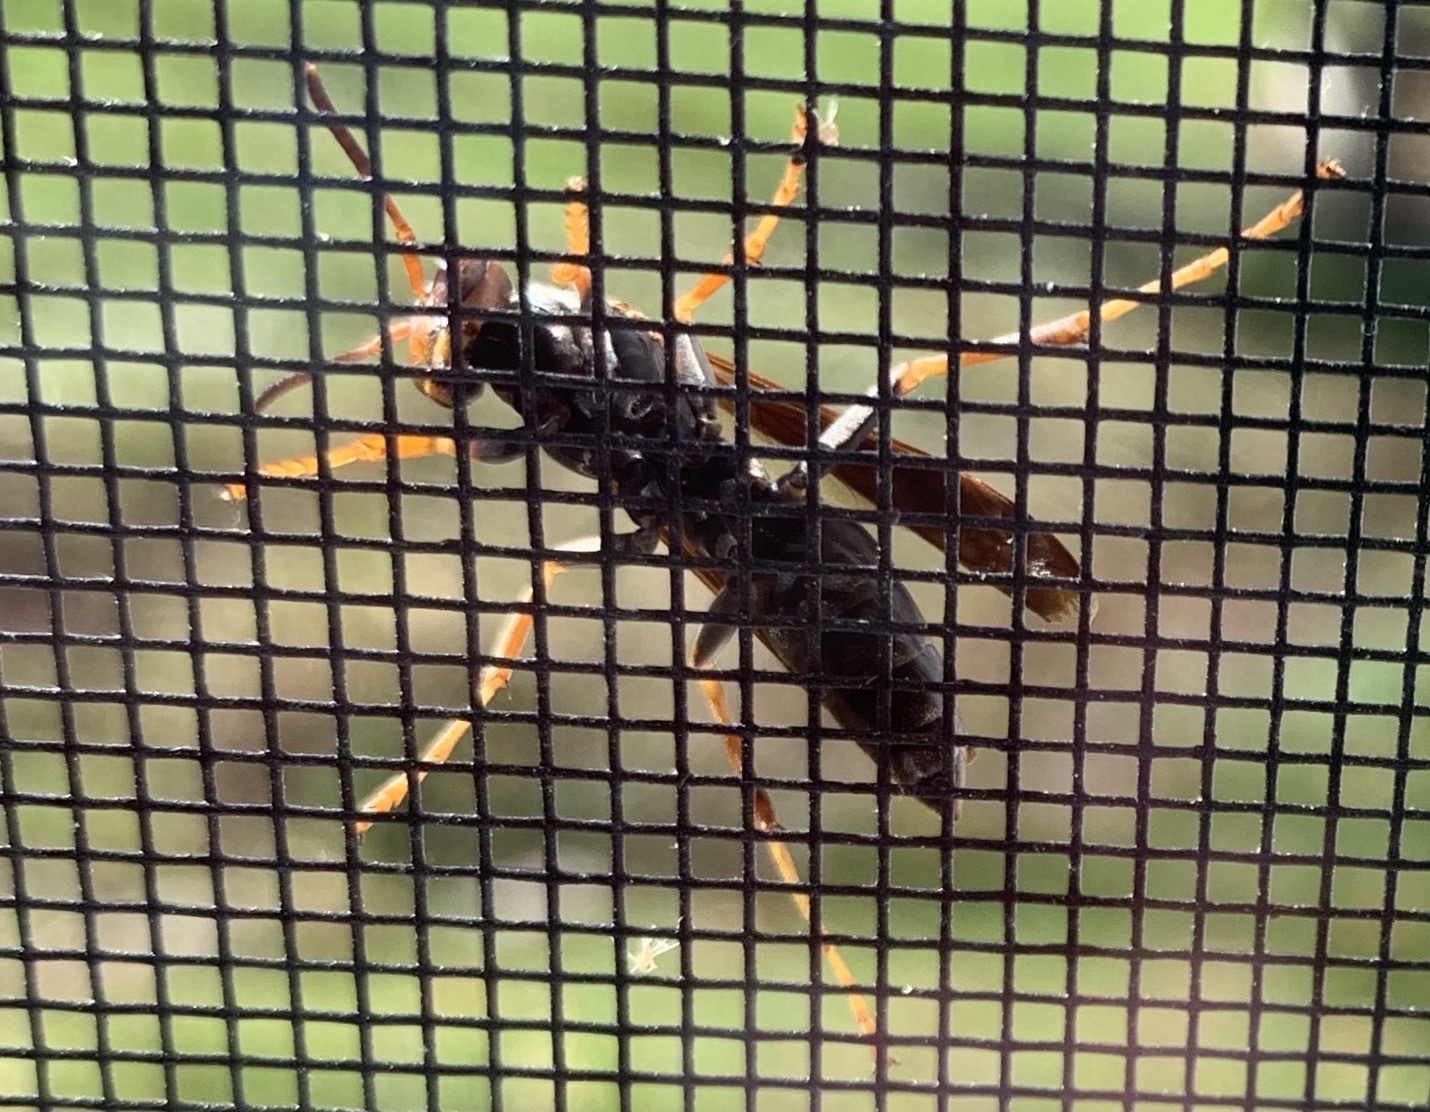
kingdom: Animalia
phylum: Arthropoda
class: Insecta
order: Hymenoptera
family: Eumenidae
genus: Polistes
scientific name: Polistes fuscatus
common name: Dark paper wasp
